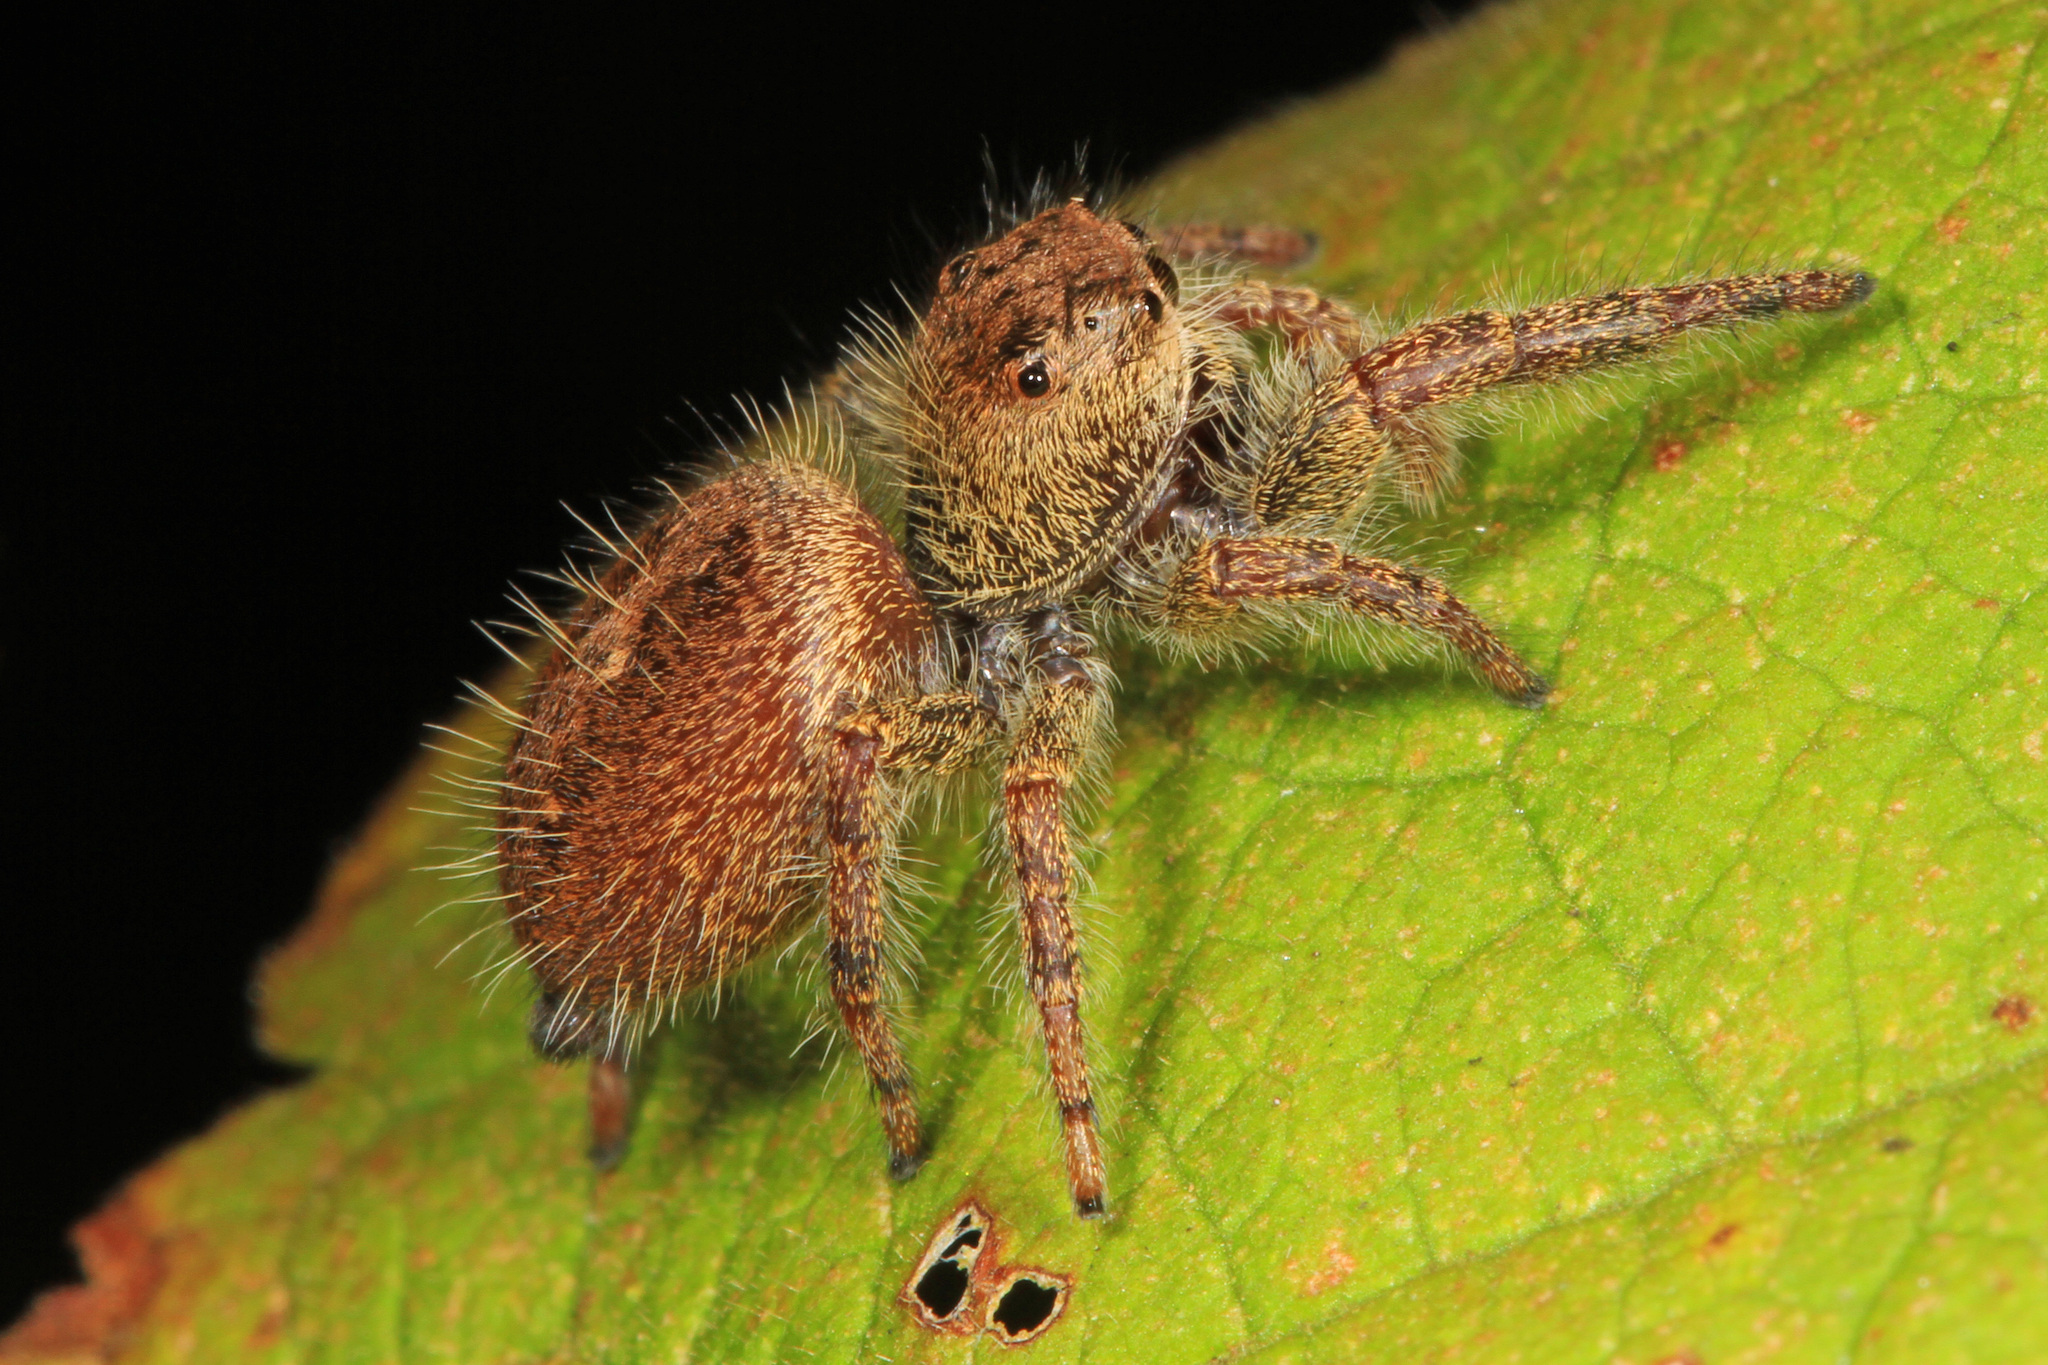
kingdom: Animalia
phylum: Arthropoda
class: Arachnida
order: Araneae
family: Salticidae
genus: Phidippus
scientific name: Phidippus princeps
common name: Grayish jumping spider
